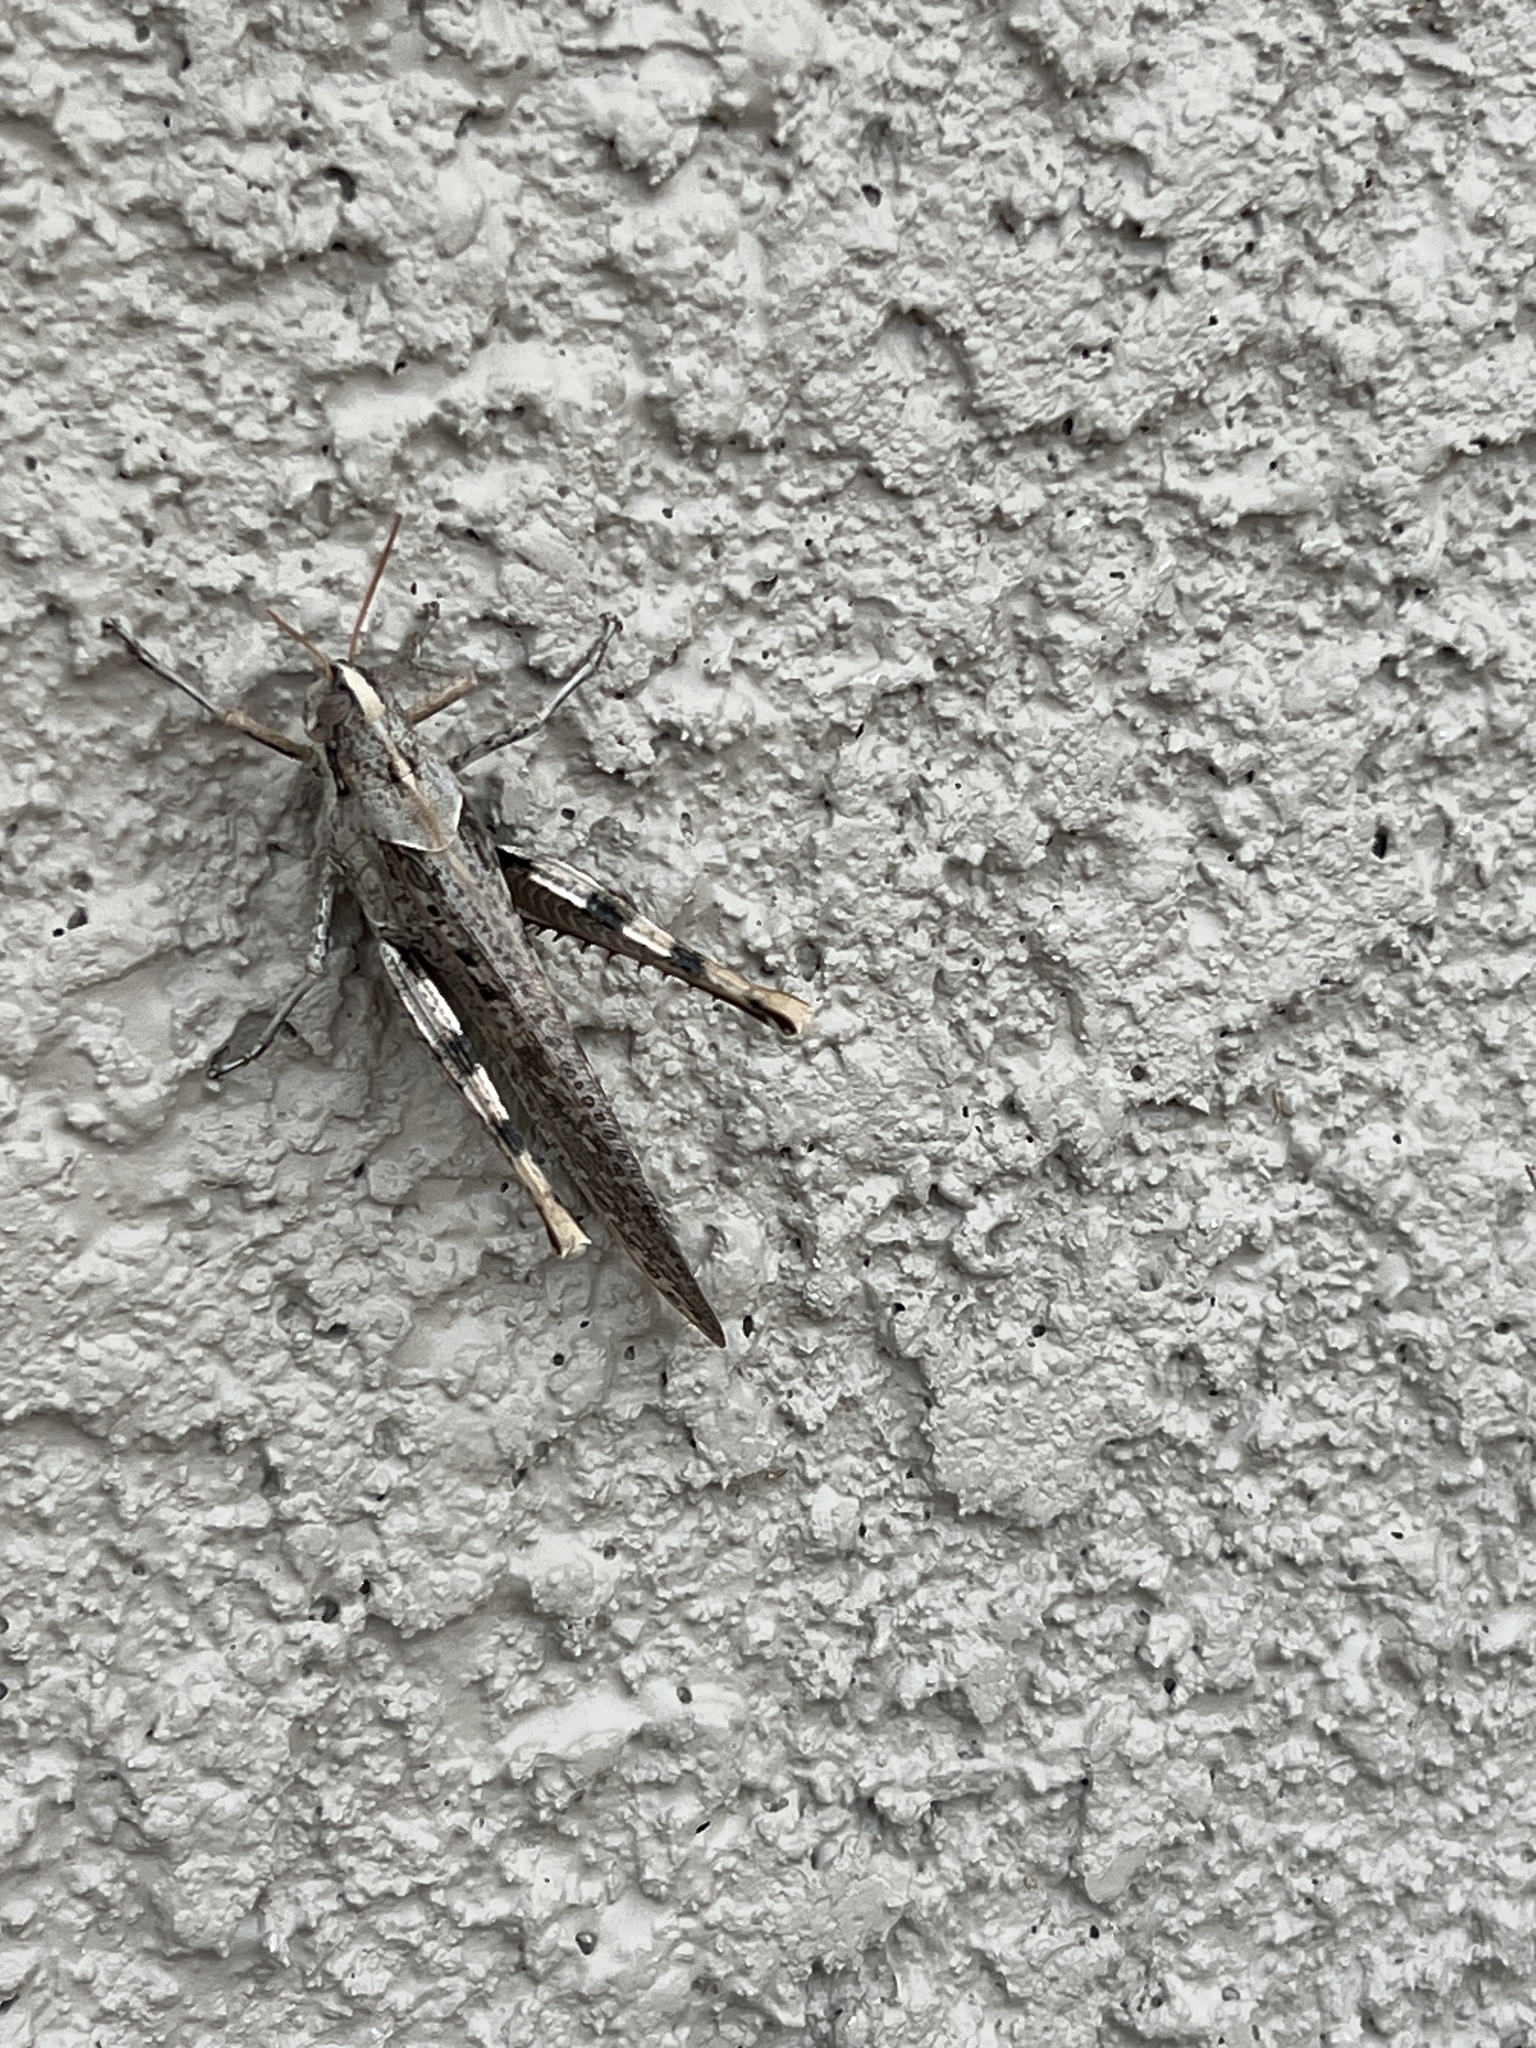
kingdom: Animalia
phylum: Arthropoda
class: Insecta
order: Orthoptera
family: Acrididae
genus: Schistocerca
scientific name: Schistocerca nitens
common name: Vagrant grasshopper
